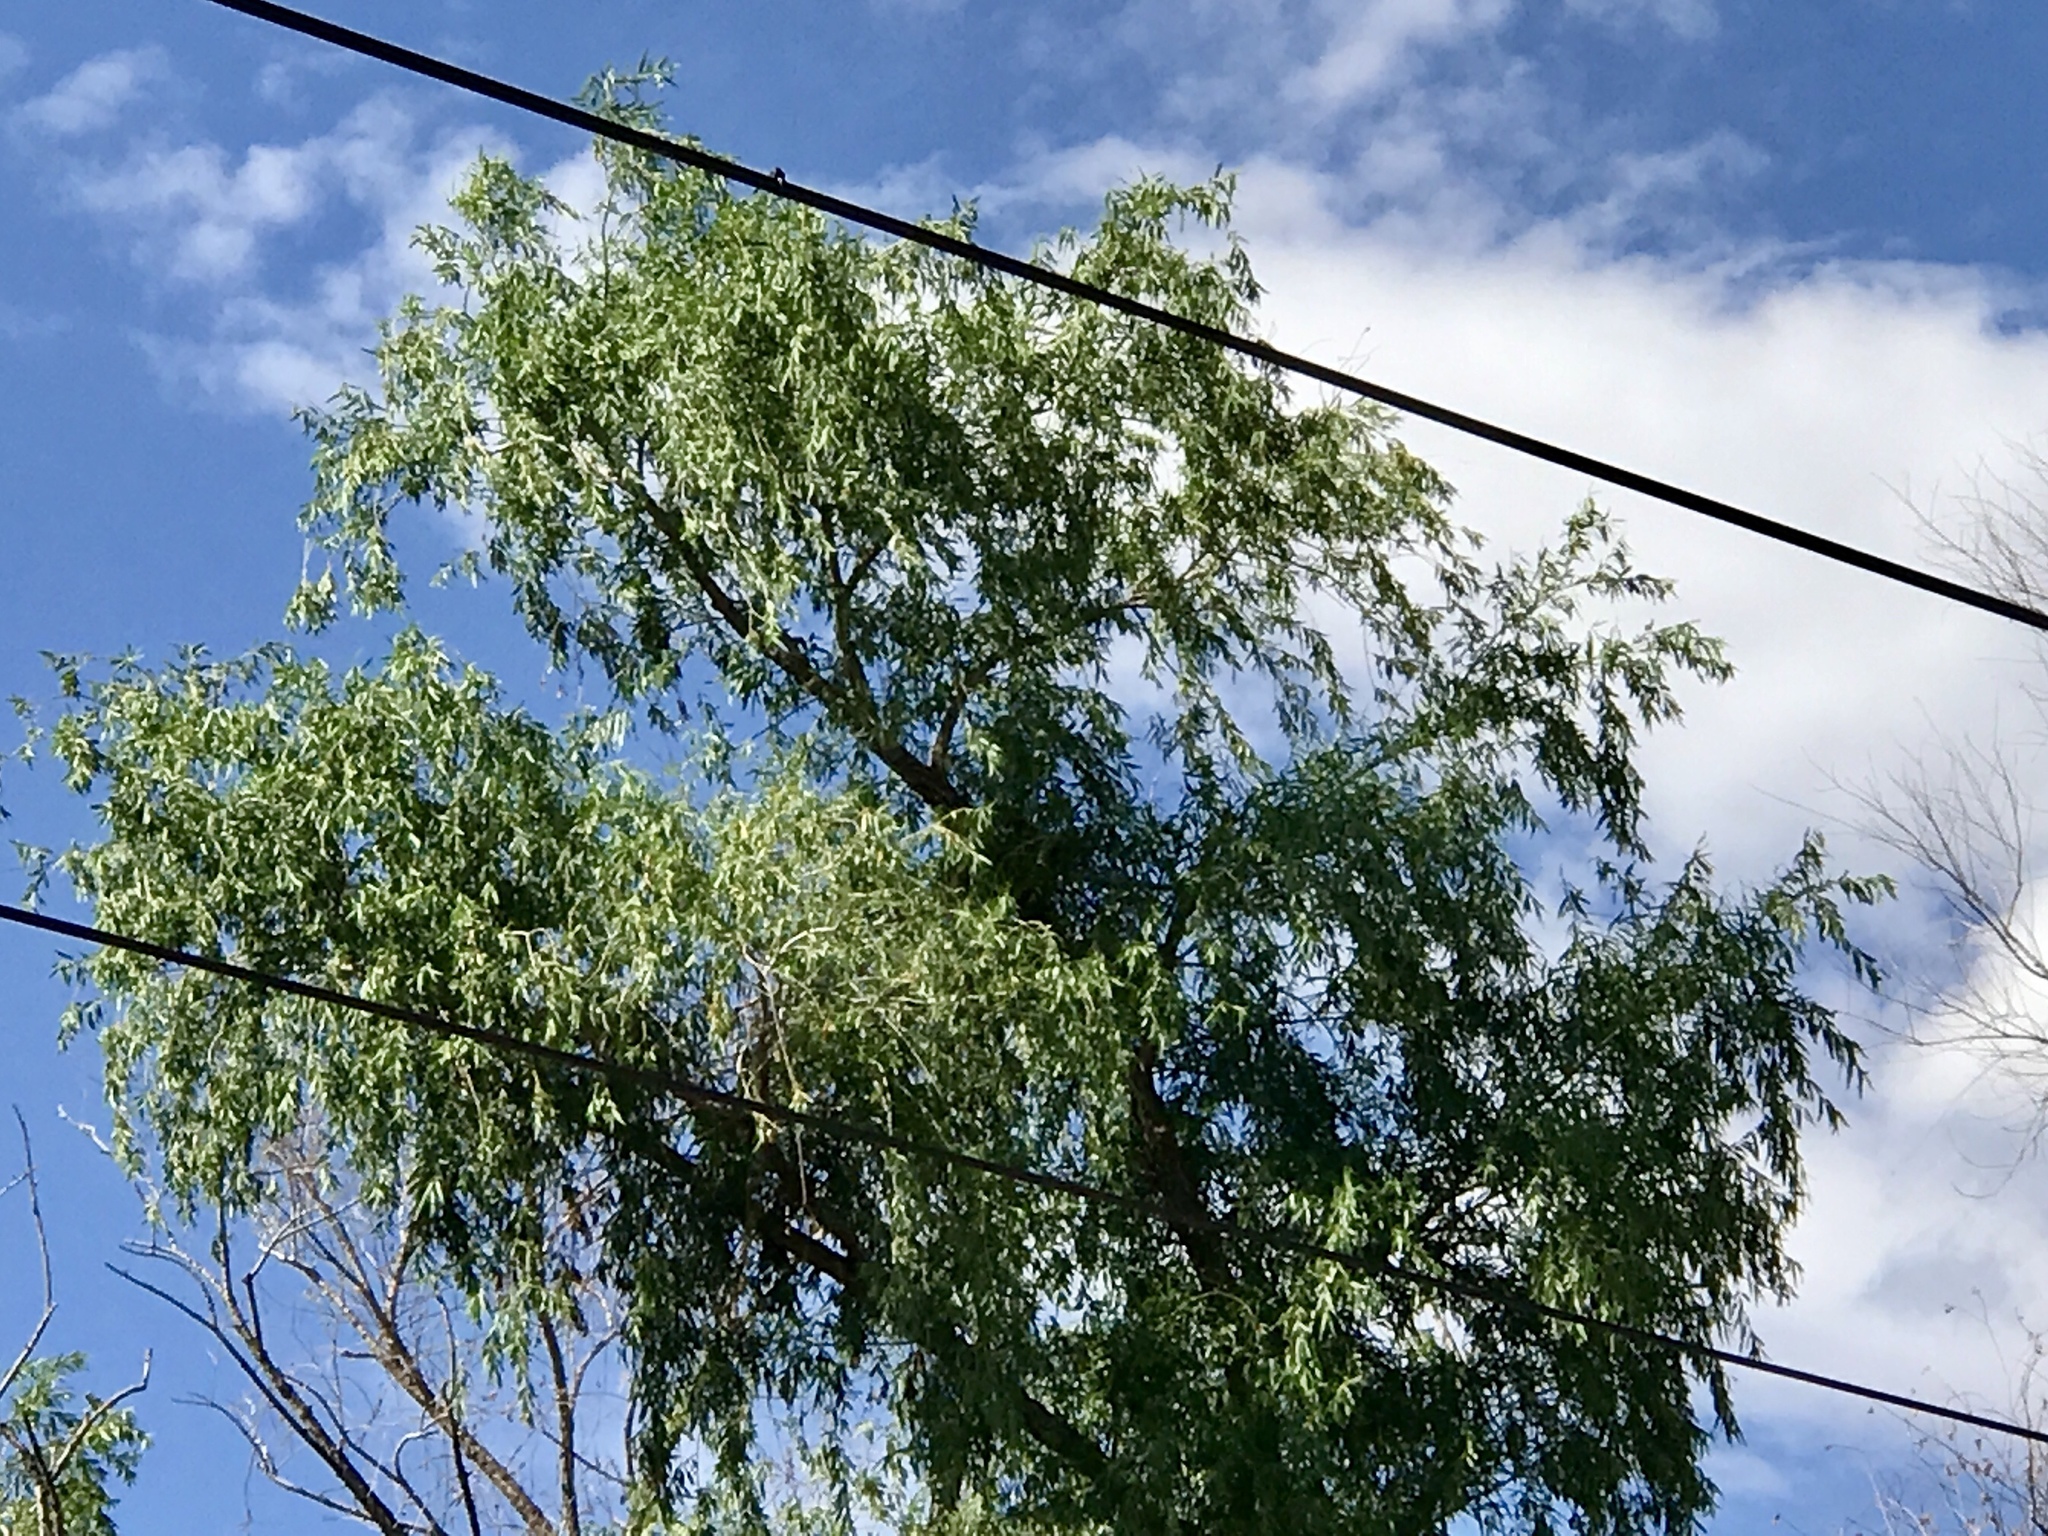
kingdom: Plantae
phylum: Tracheophyta
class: Magnoliopsida
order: Malpighiales
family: Salicaceae
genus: Salix
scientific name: Salix gooddingii
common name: Goodding's willow
